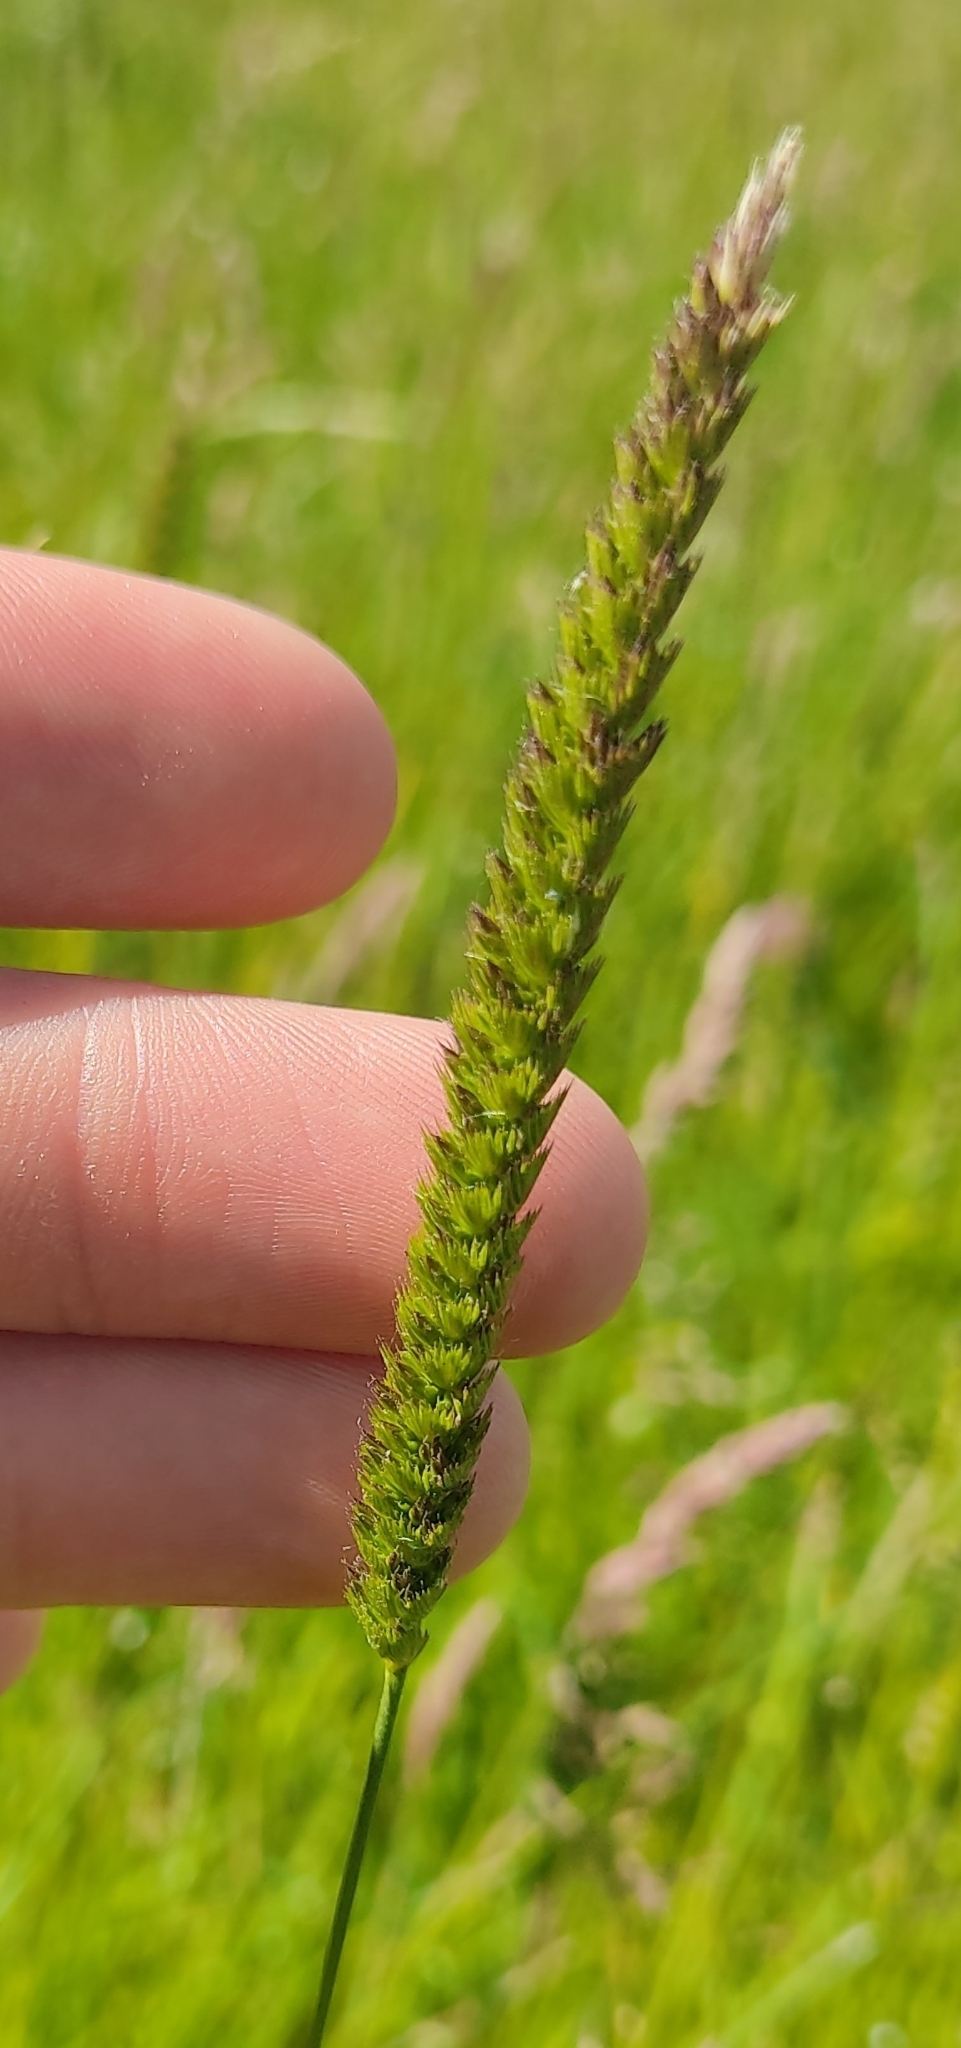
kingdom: Plantae
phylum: Tracheophyta
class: Liliopsida
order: Poales
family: Poaceae
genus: Cynosurus
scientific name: Cynosurus cristatus
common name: Crested dog's-tail
